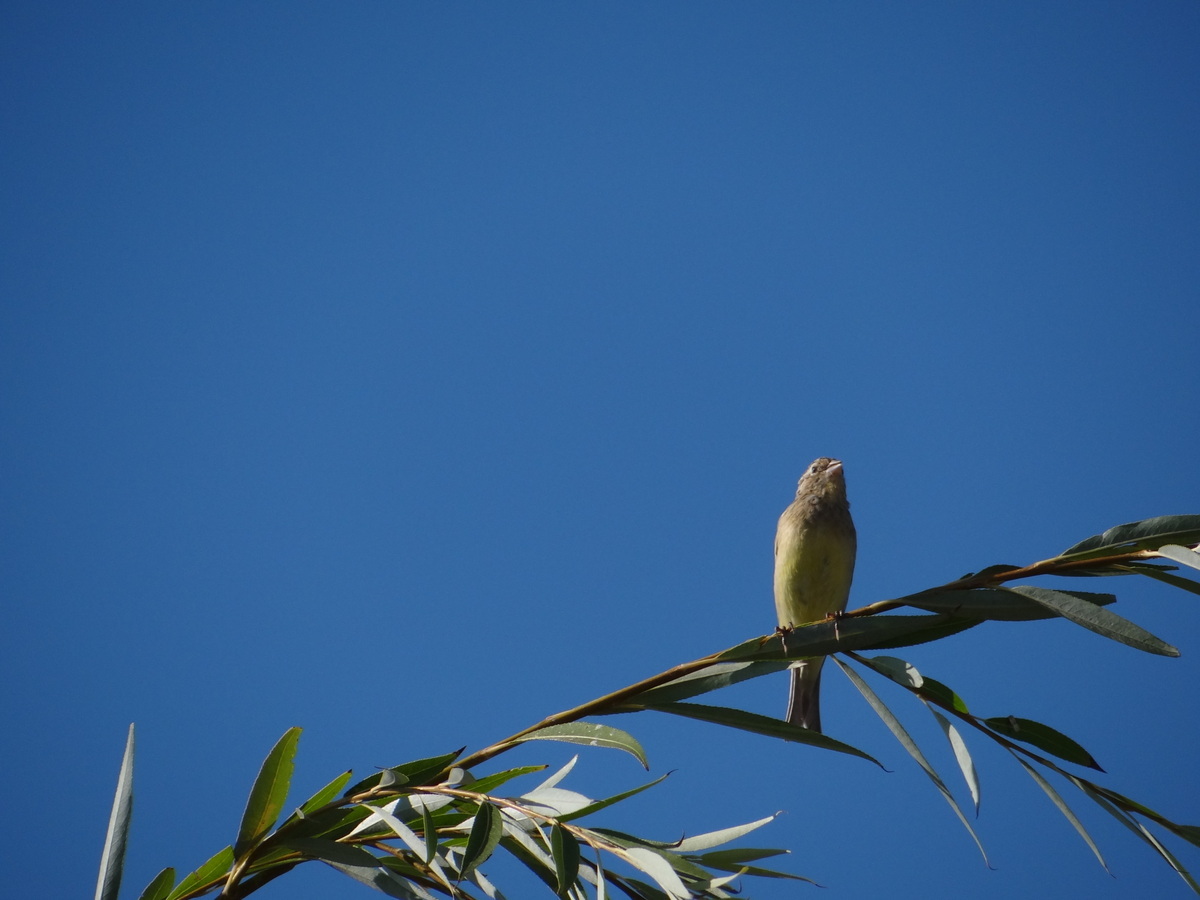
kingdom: Animalia
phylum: Chordata
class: Aves
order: Passeriformes
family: Thraupidae
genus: Sicalis
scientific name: Sicalis luteola
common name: Grassland yellow-finch
